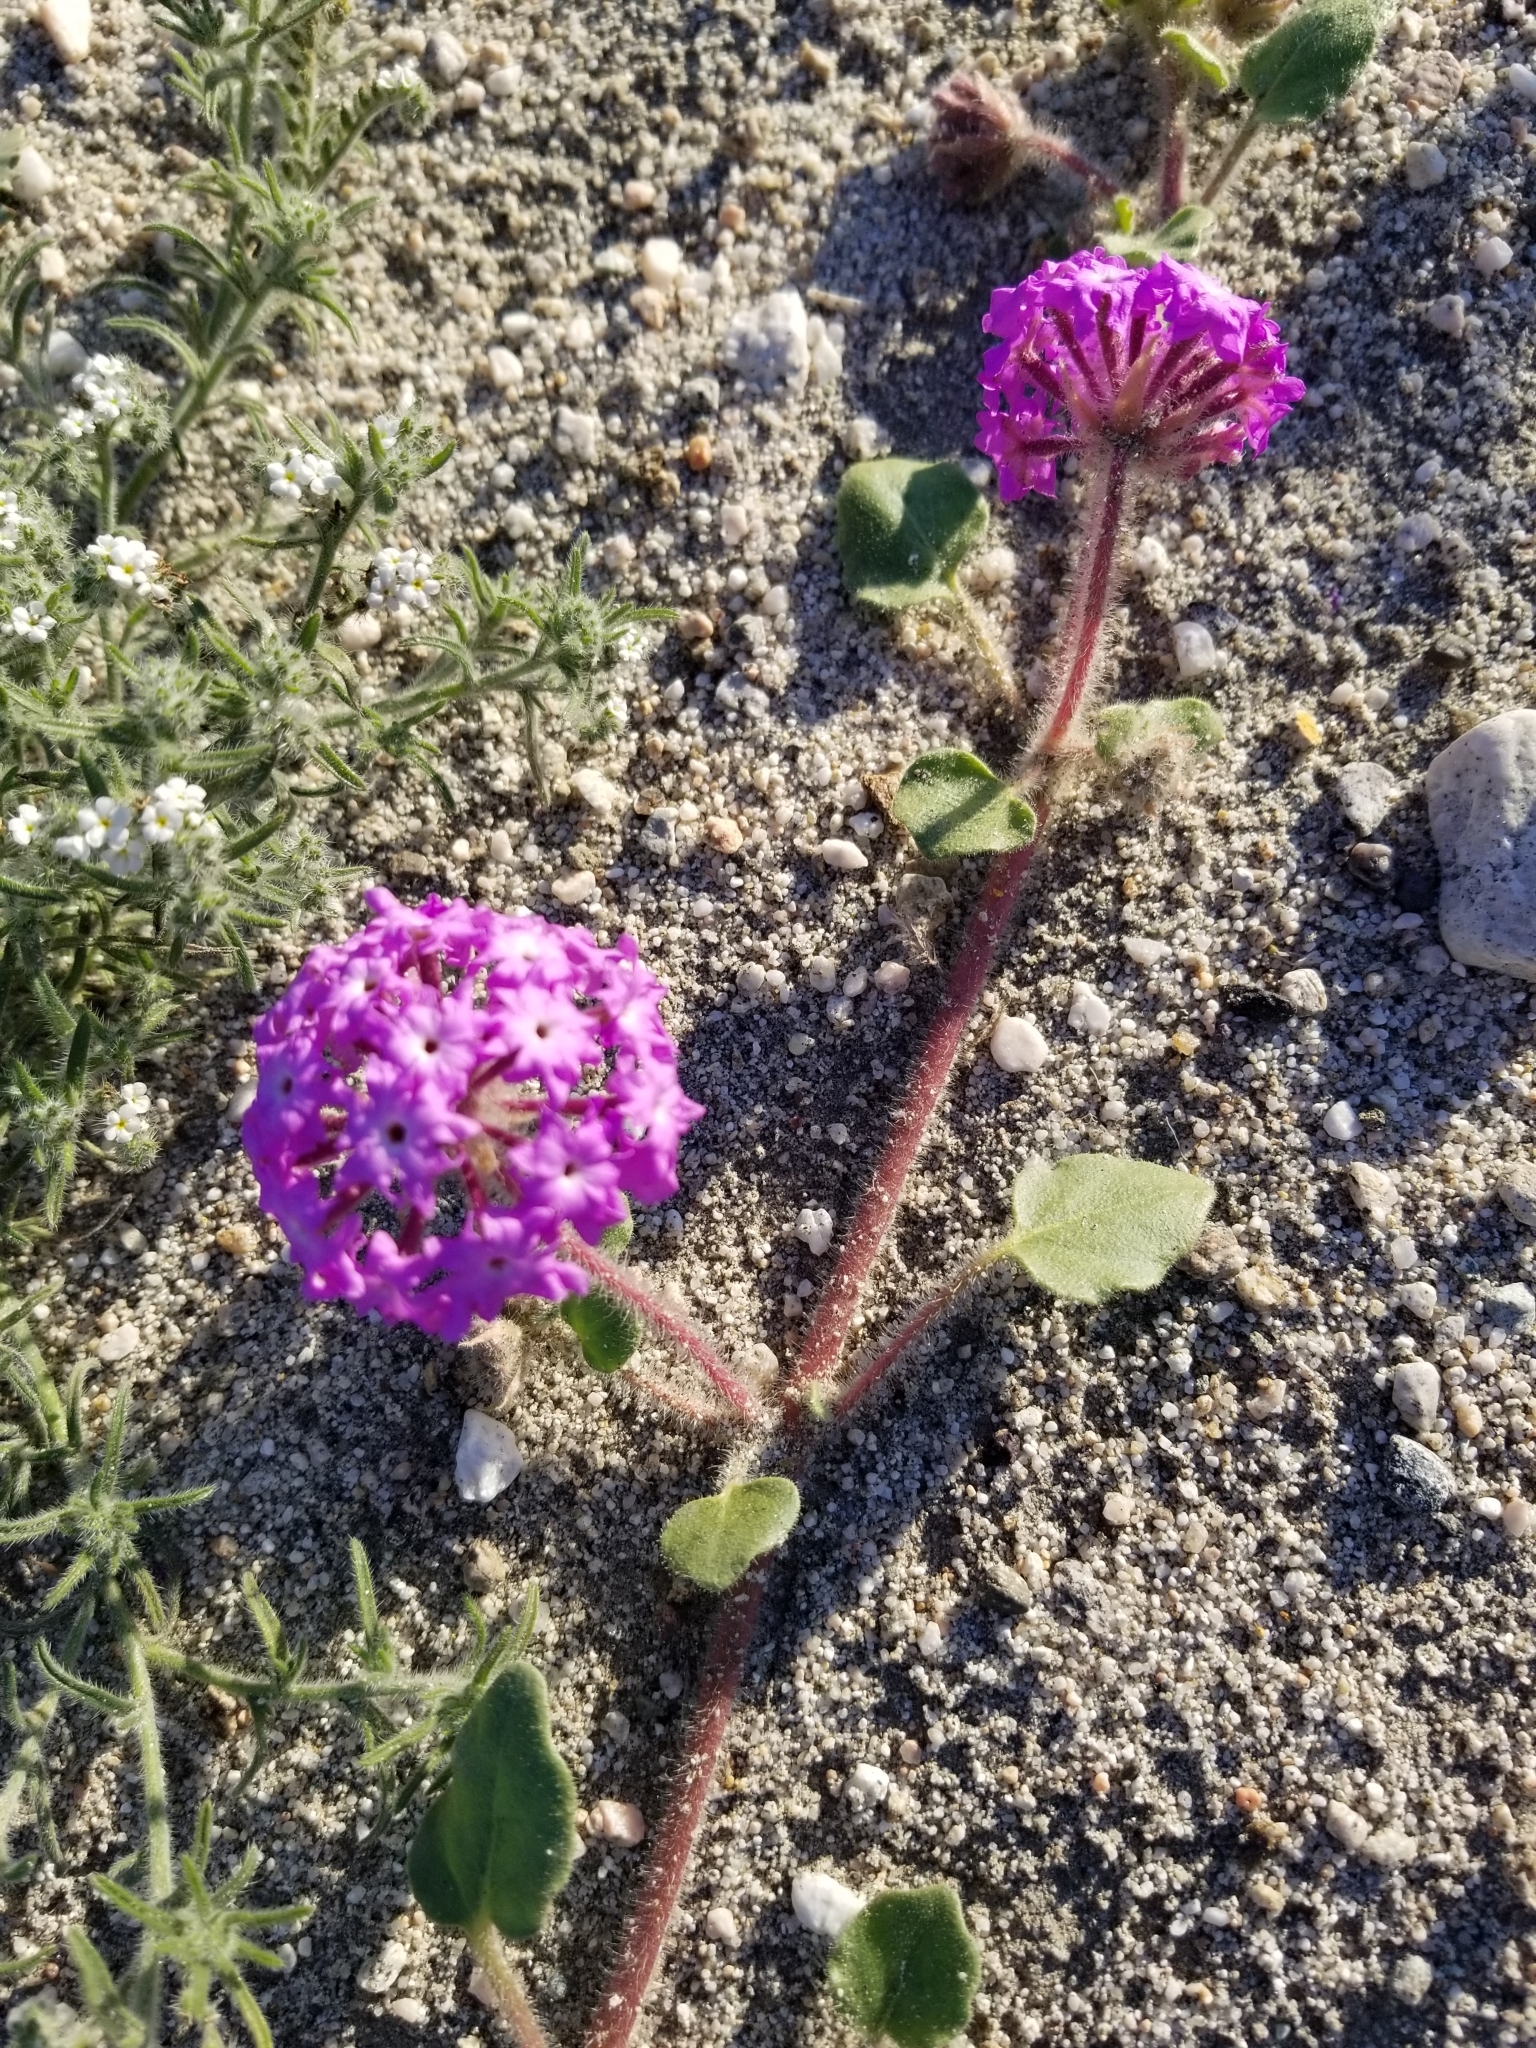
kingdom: Plantae
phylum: Tracheophyta
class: Magnoliopsida
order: Caryophyllales
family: Nyctaginaceae
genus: Abronia
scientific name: Abronia villosa
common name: Desert sand-verbena
